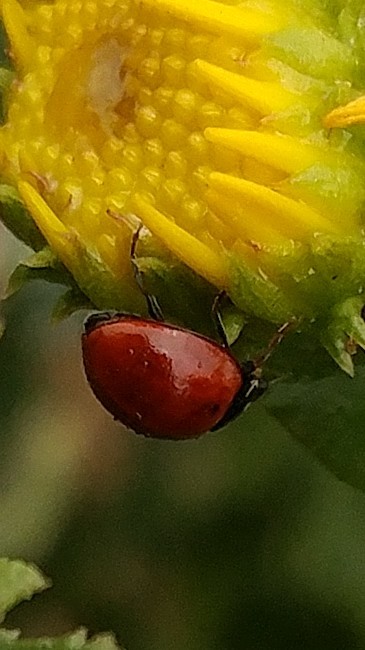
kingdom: Animalia
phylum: Arthropoda
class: Insecta
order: Coleoptera
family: Coccinellidae
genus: Cycloneda
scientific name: Cycloneda sanguinea
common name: Ladybird beetle
